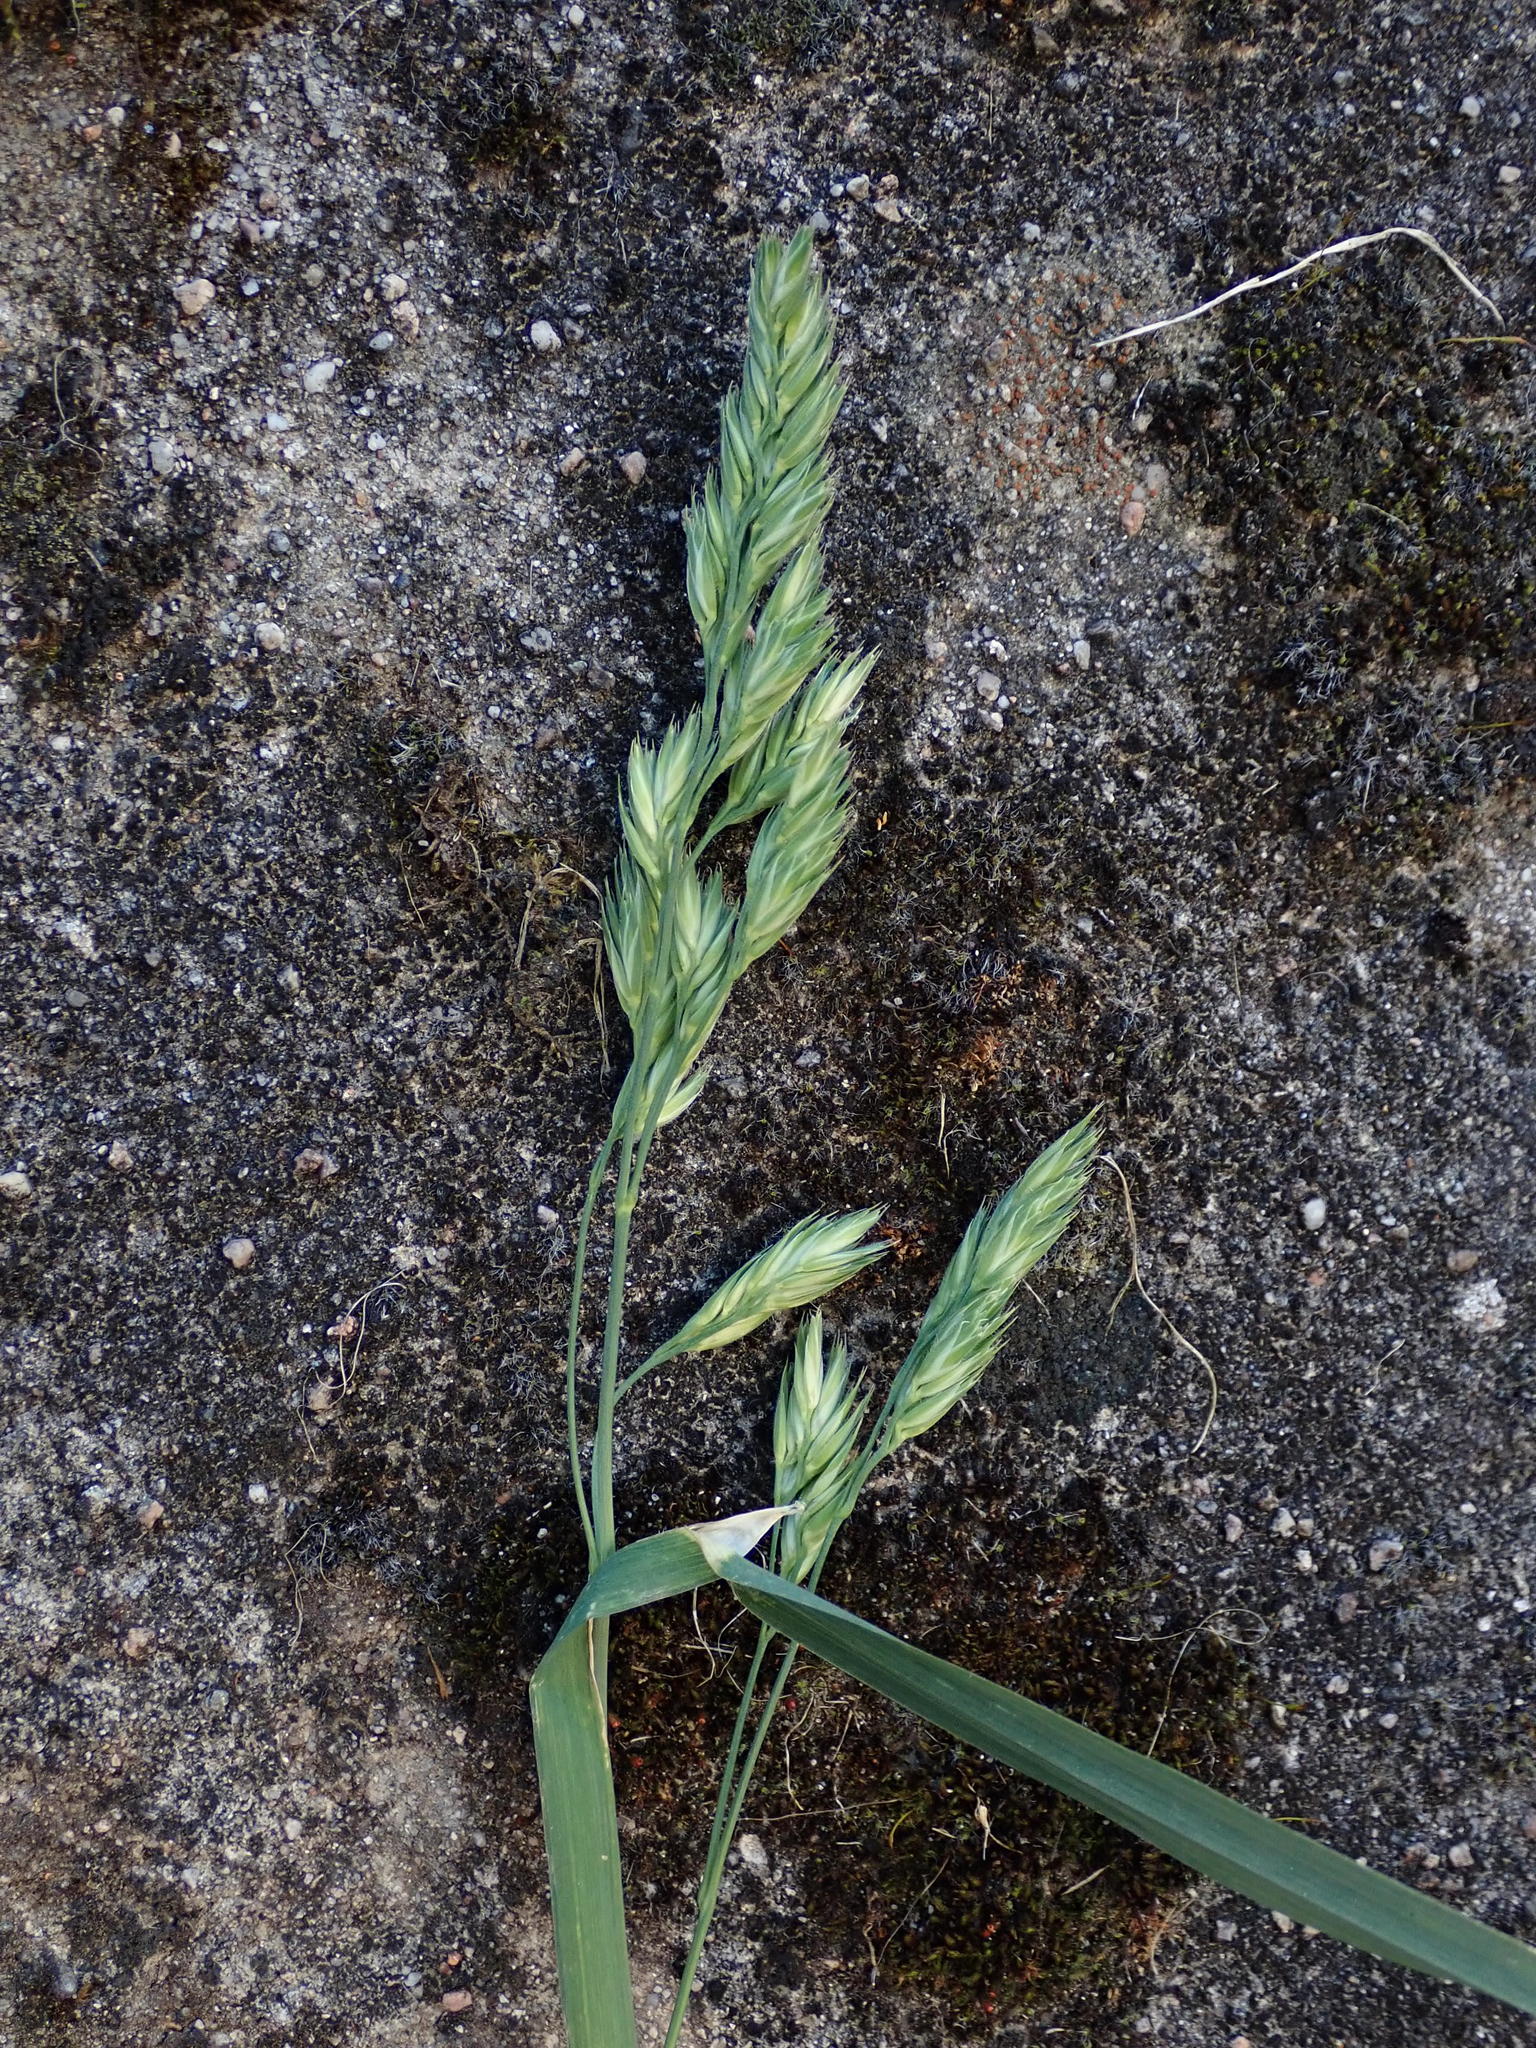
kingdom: Plantae
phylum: Tracheophyta
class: Liliopsida
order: Poales
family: Poaceae
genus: Dactylis
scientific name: Dactylis glomerata
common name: Orchardgrass
